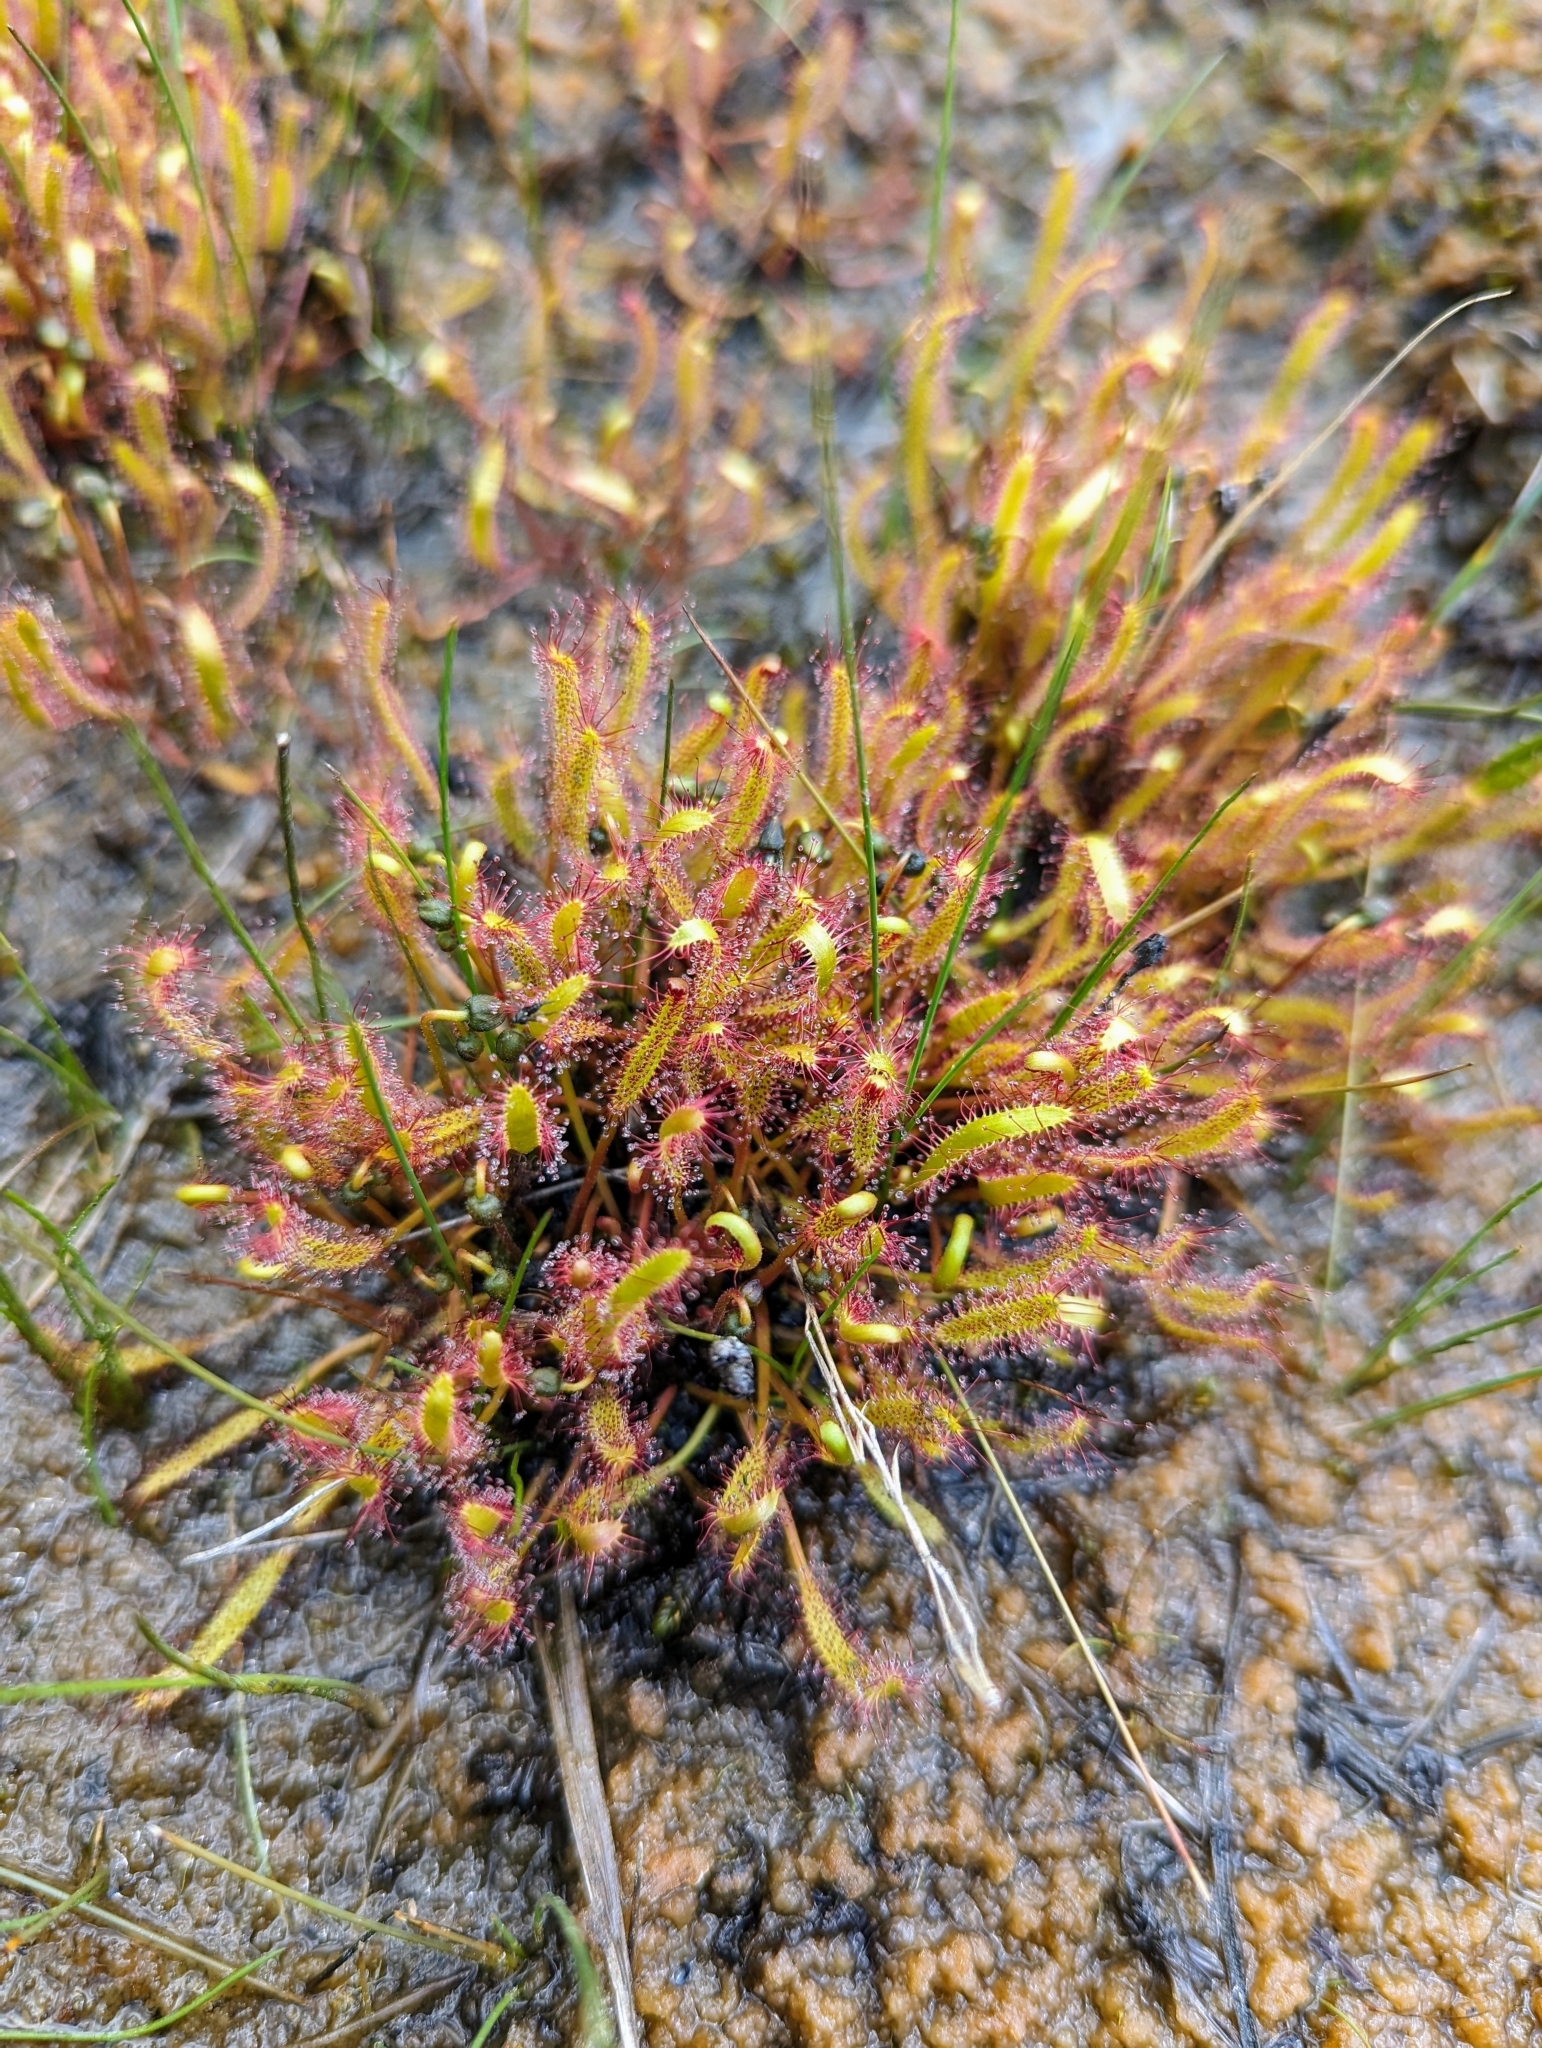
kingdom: Plantae
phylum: Tracheophyta
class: Magnoliopsida
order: Caryophyllales
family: Droseraceae
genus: Drosera
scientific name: Drosera linearis
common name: Linear-leaved sundew
